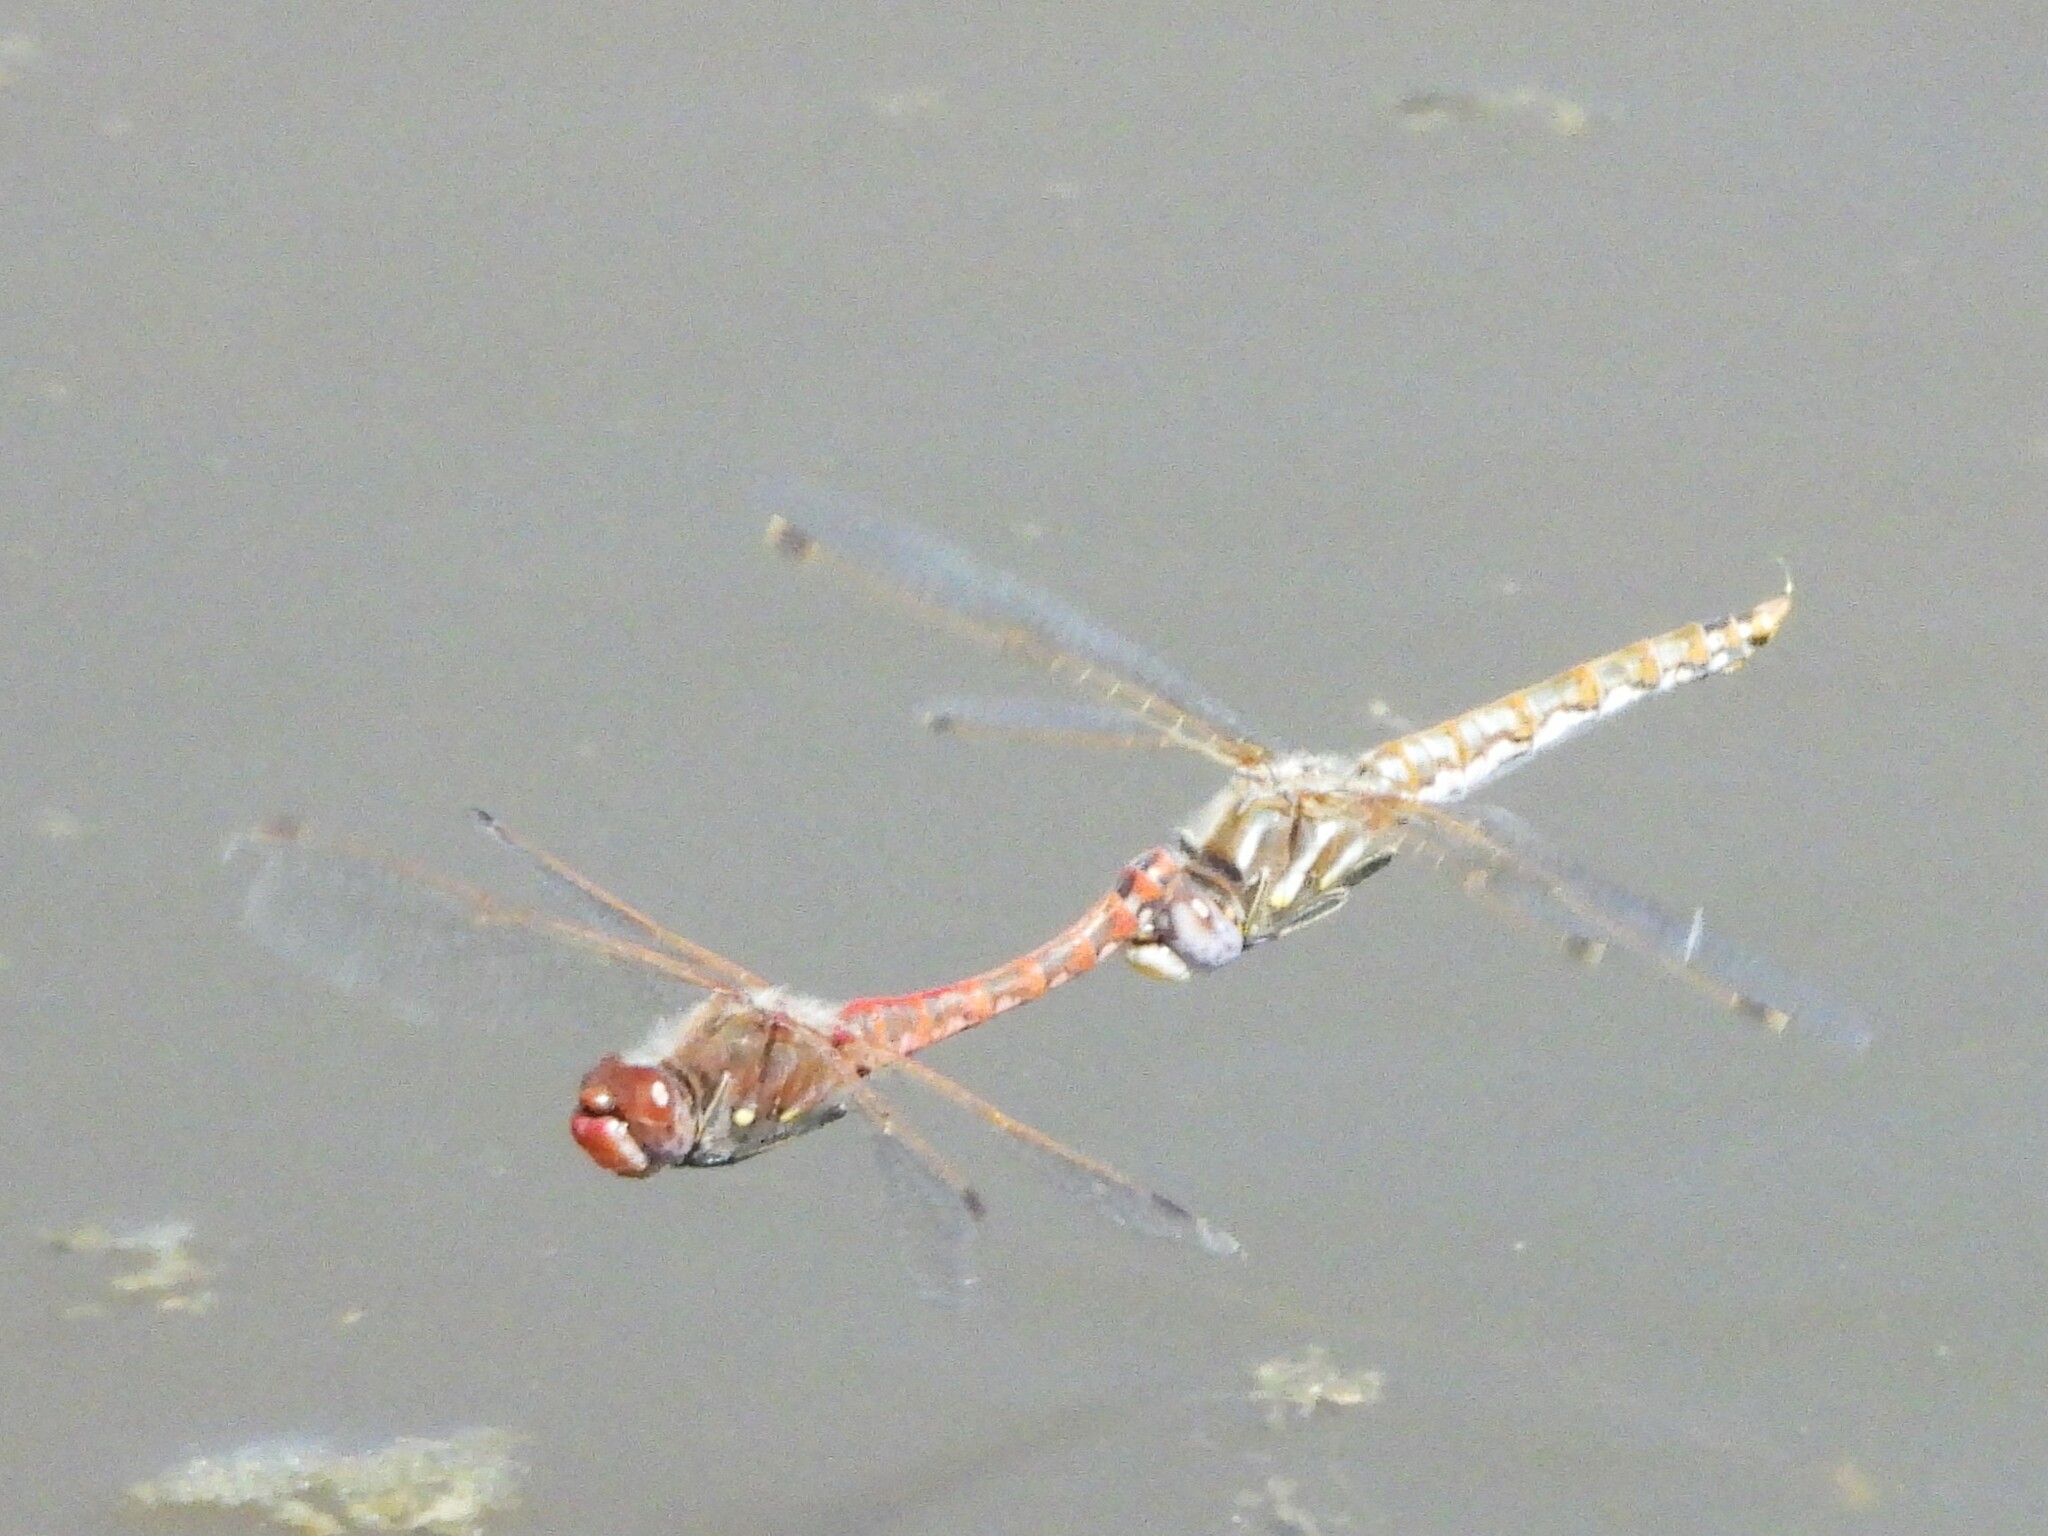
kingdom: Animalia
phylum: Arthropoda
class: Insecta
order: Odonata
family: Libellulidae
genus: Sympetrum
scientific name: Sympetrum corruptum
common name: Variegated meadowhawk
